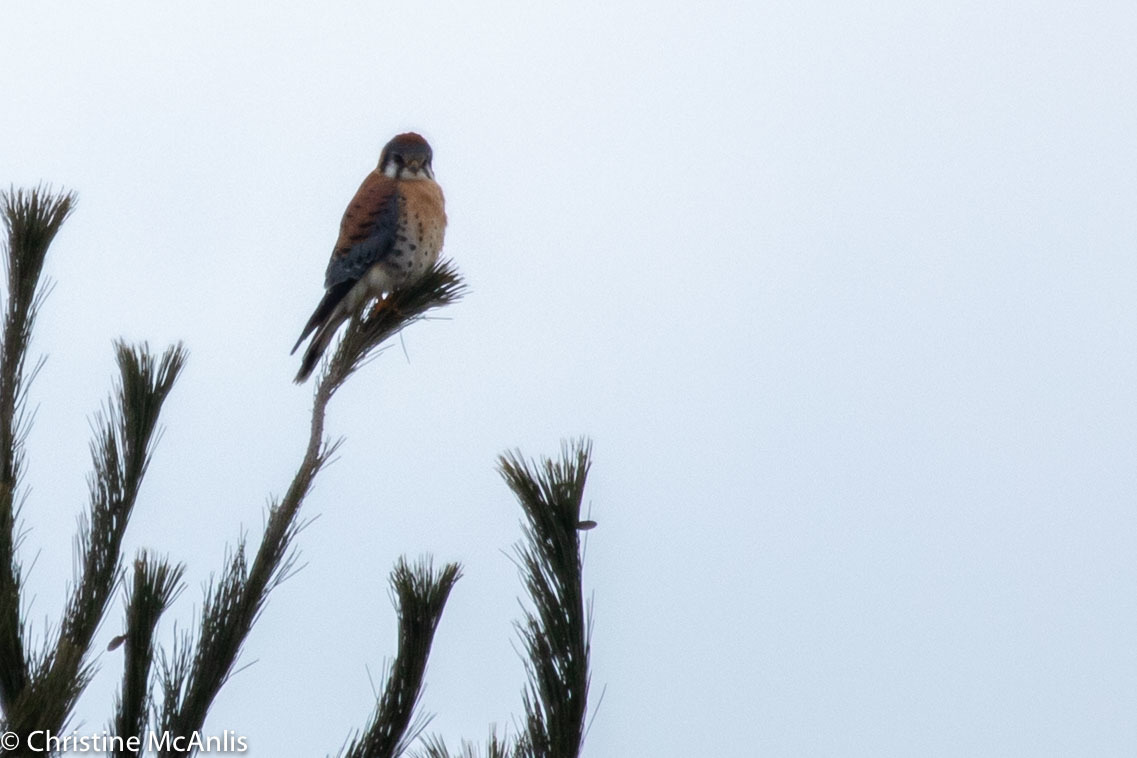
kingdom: Animalia
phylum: Chordata
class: Aves
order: Falconiformes
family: Falconidae
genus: Falco
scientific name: Falco sparverius
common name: American kestrel
